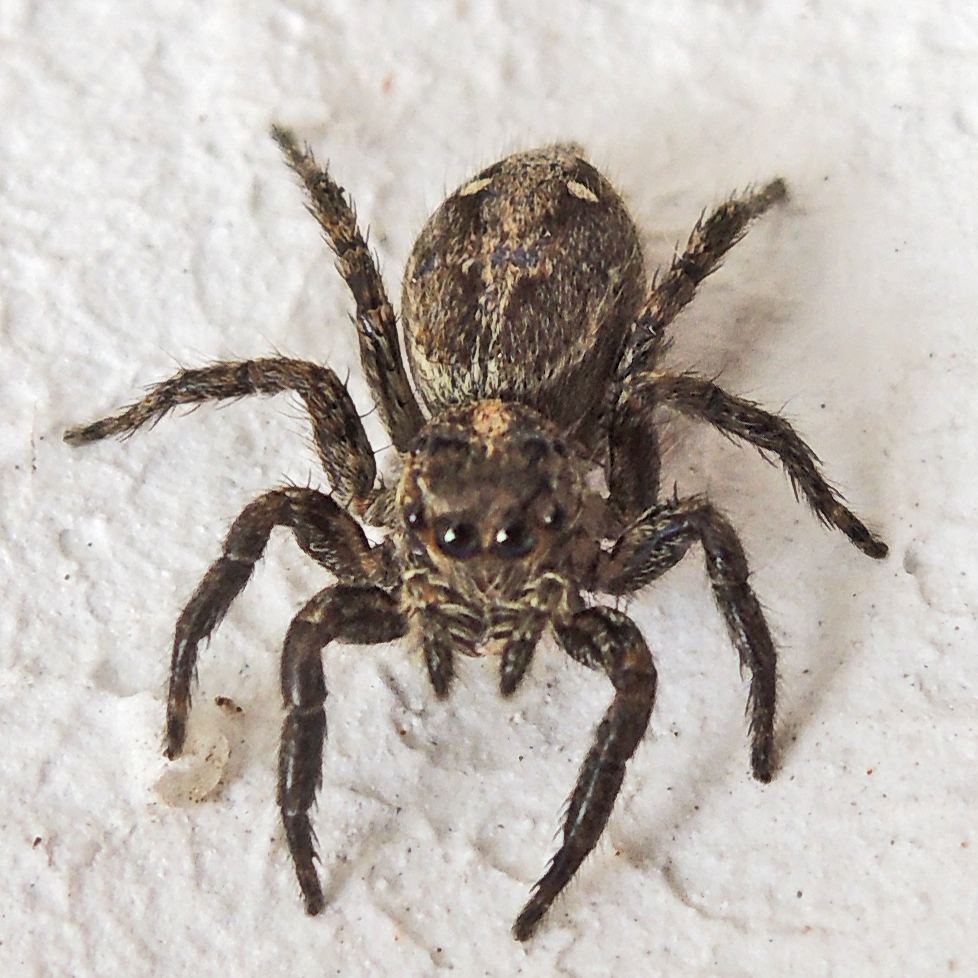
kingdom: Animalia
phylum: Arthropoda
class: Arachnida
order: Araneae
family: Salticidae
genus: Plexippus
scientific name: Plexippus paykulli
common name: Pantropical jumper
